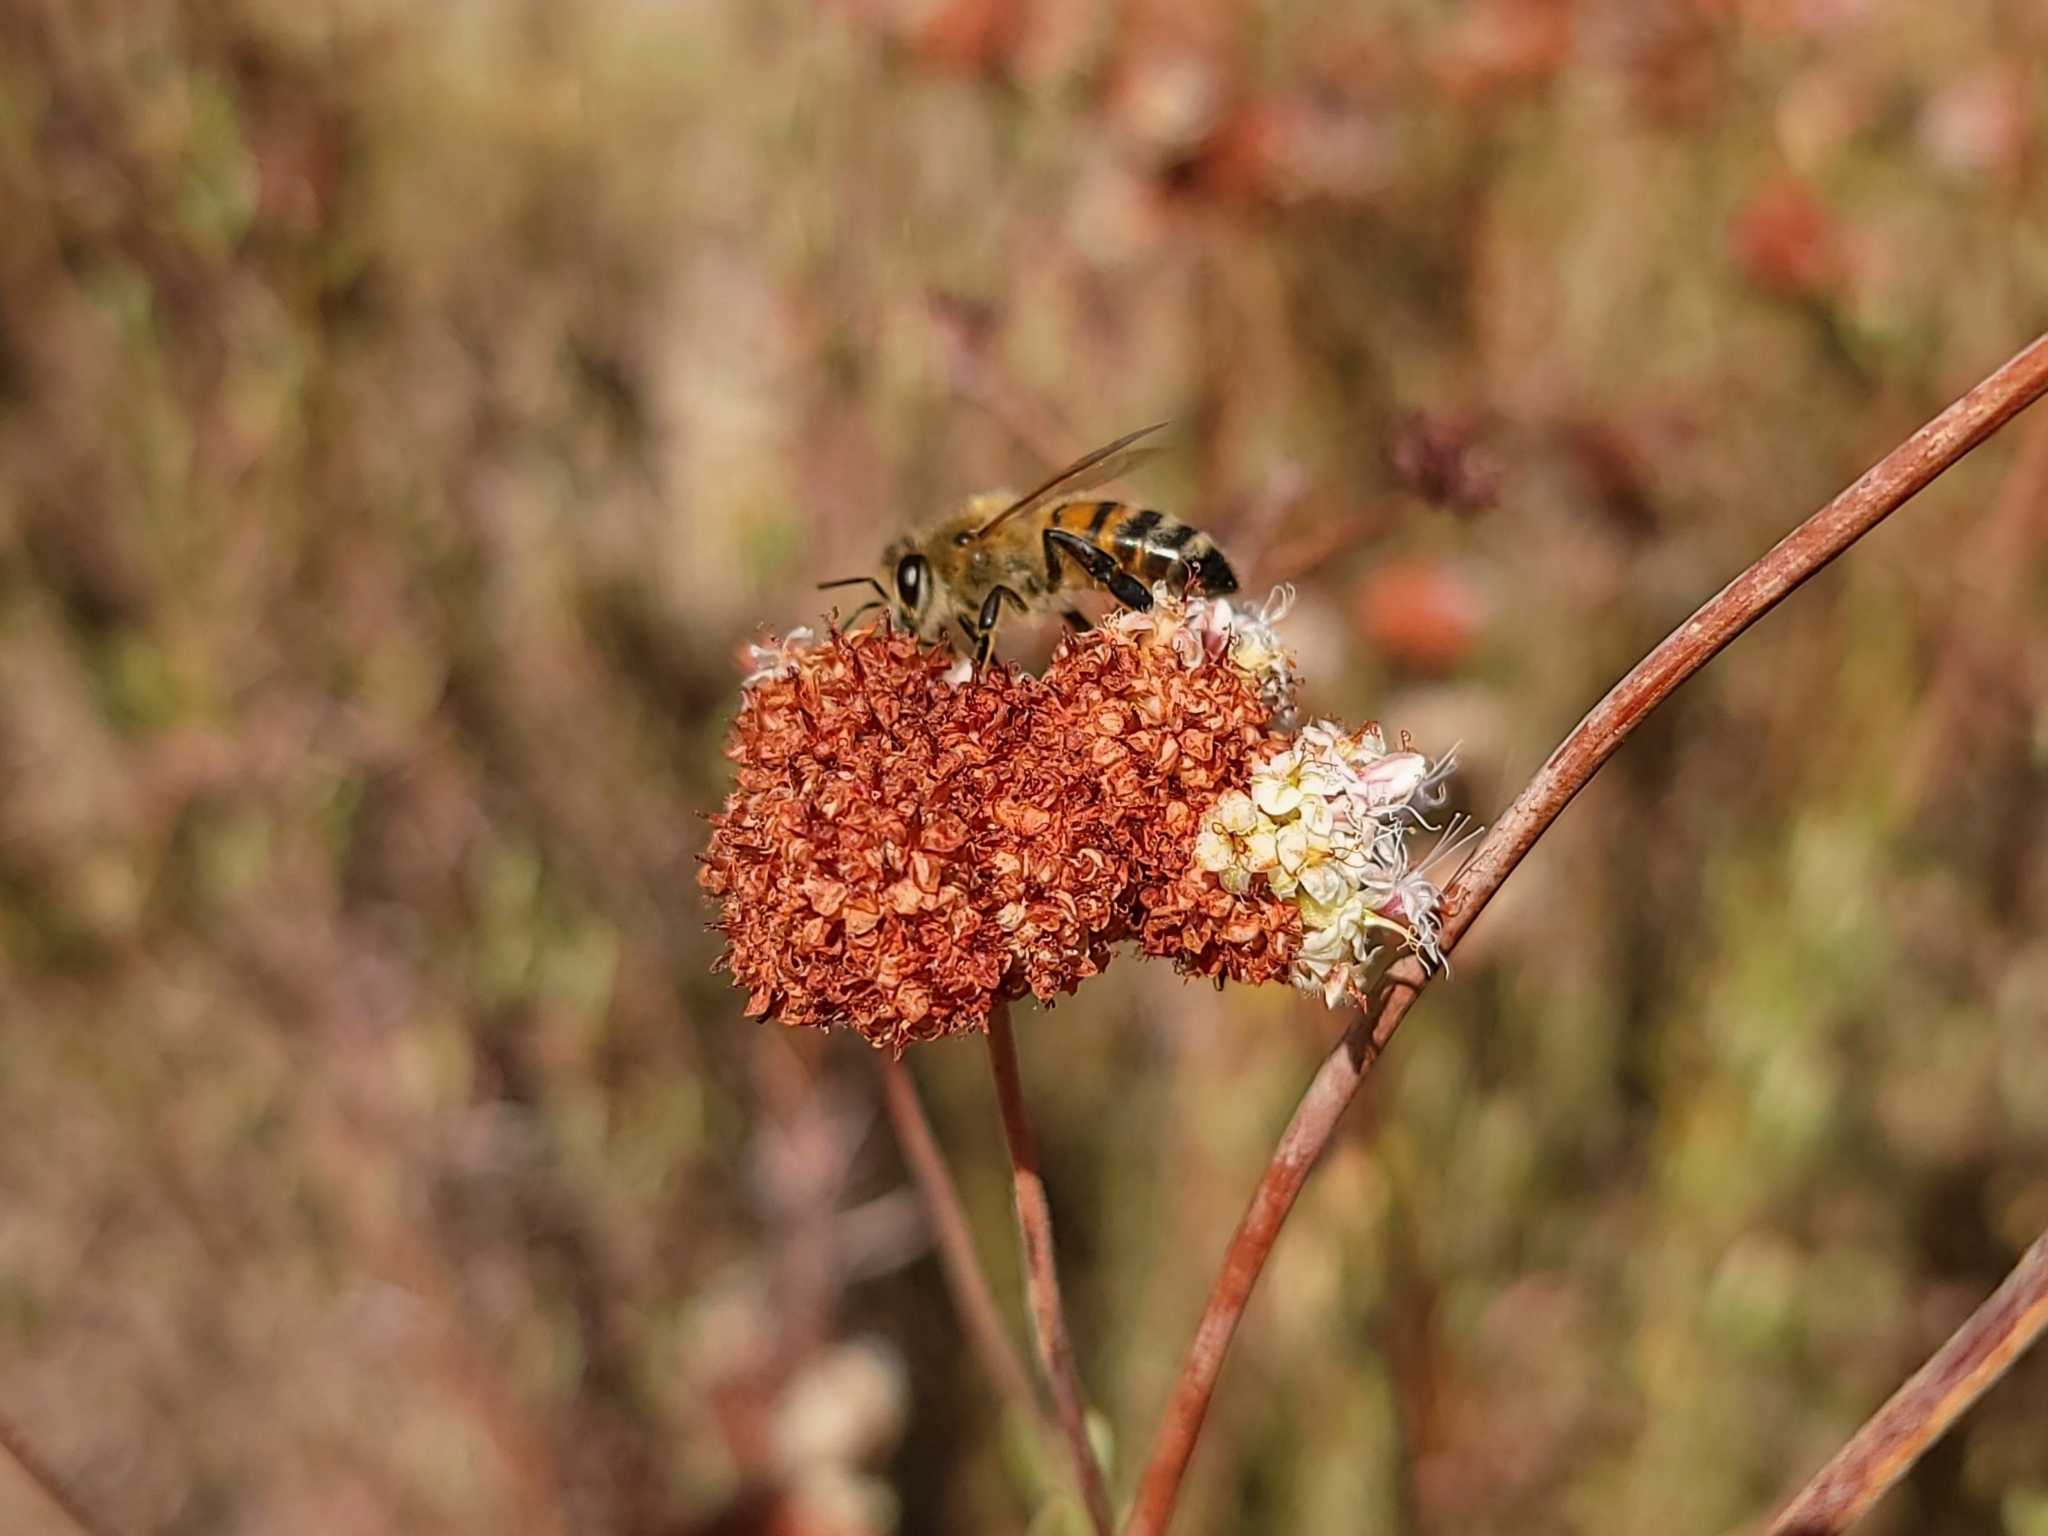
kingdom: Animalia
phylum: Arthropoda
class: Insecta
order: Hymenoptera
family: Apidae
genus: Apis
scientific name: Apis mellifera
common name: Honey bee
